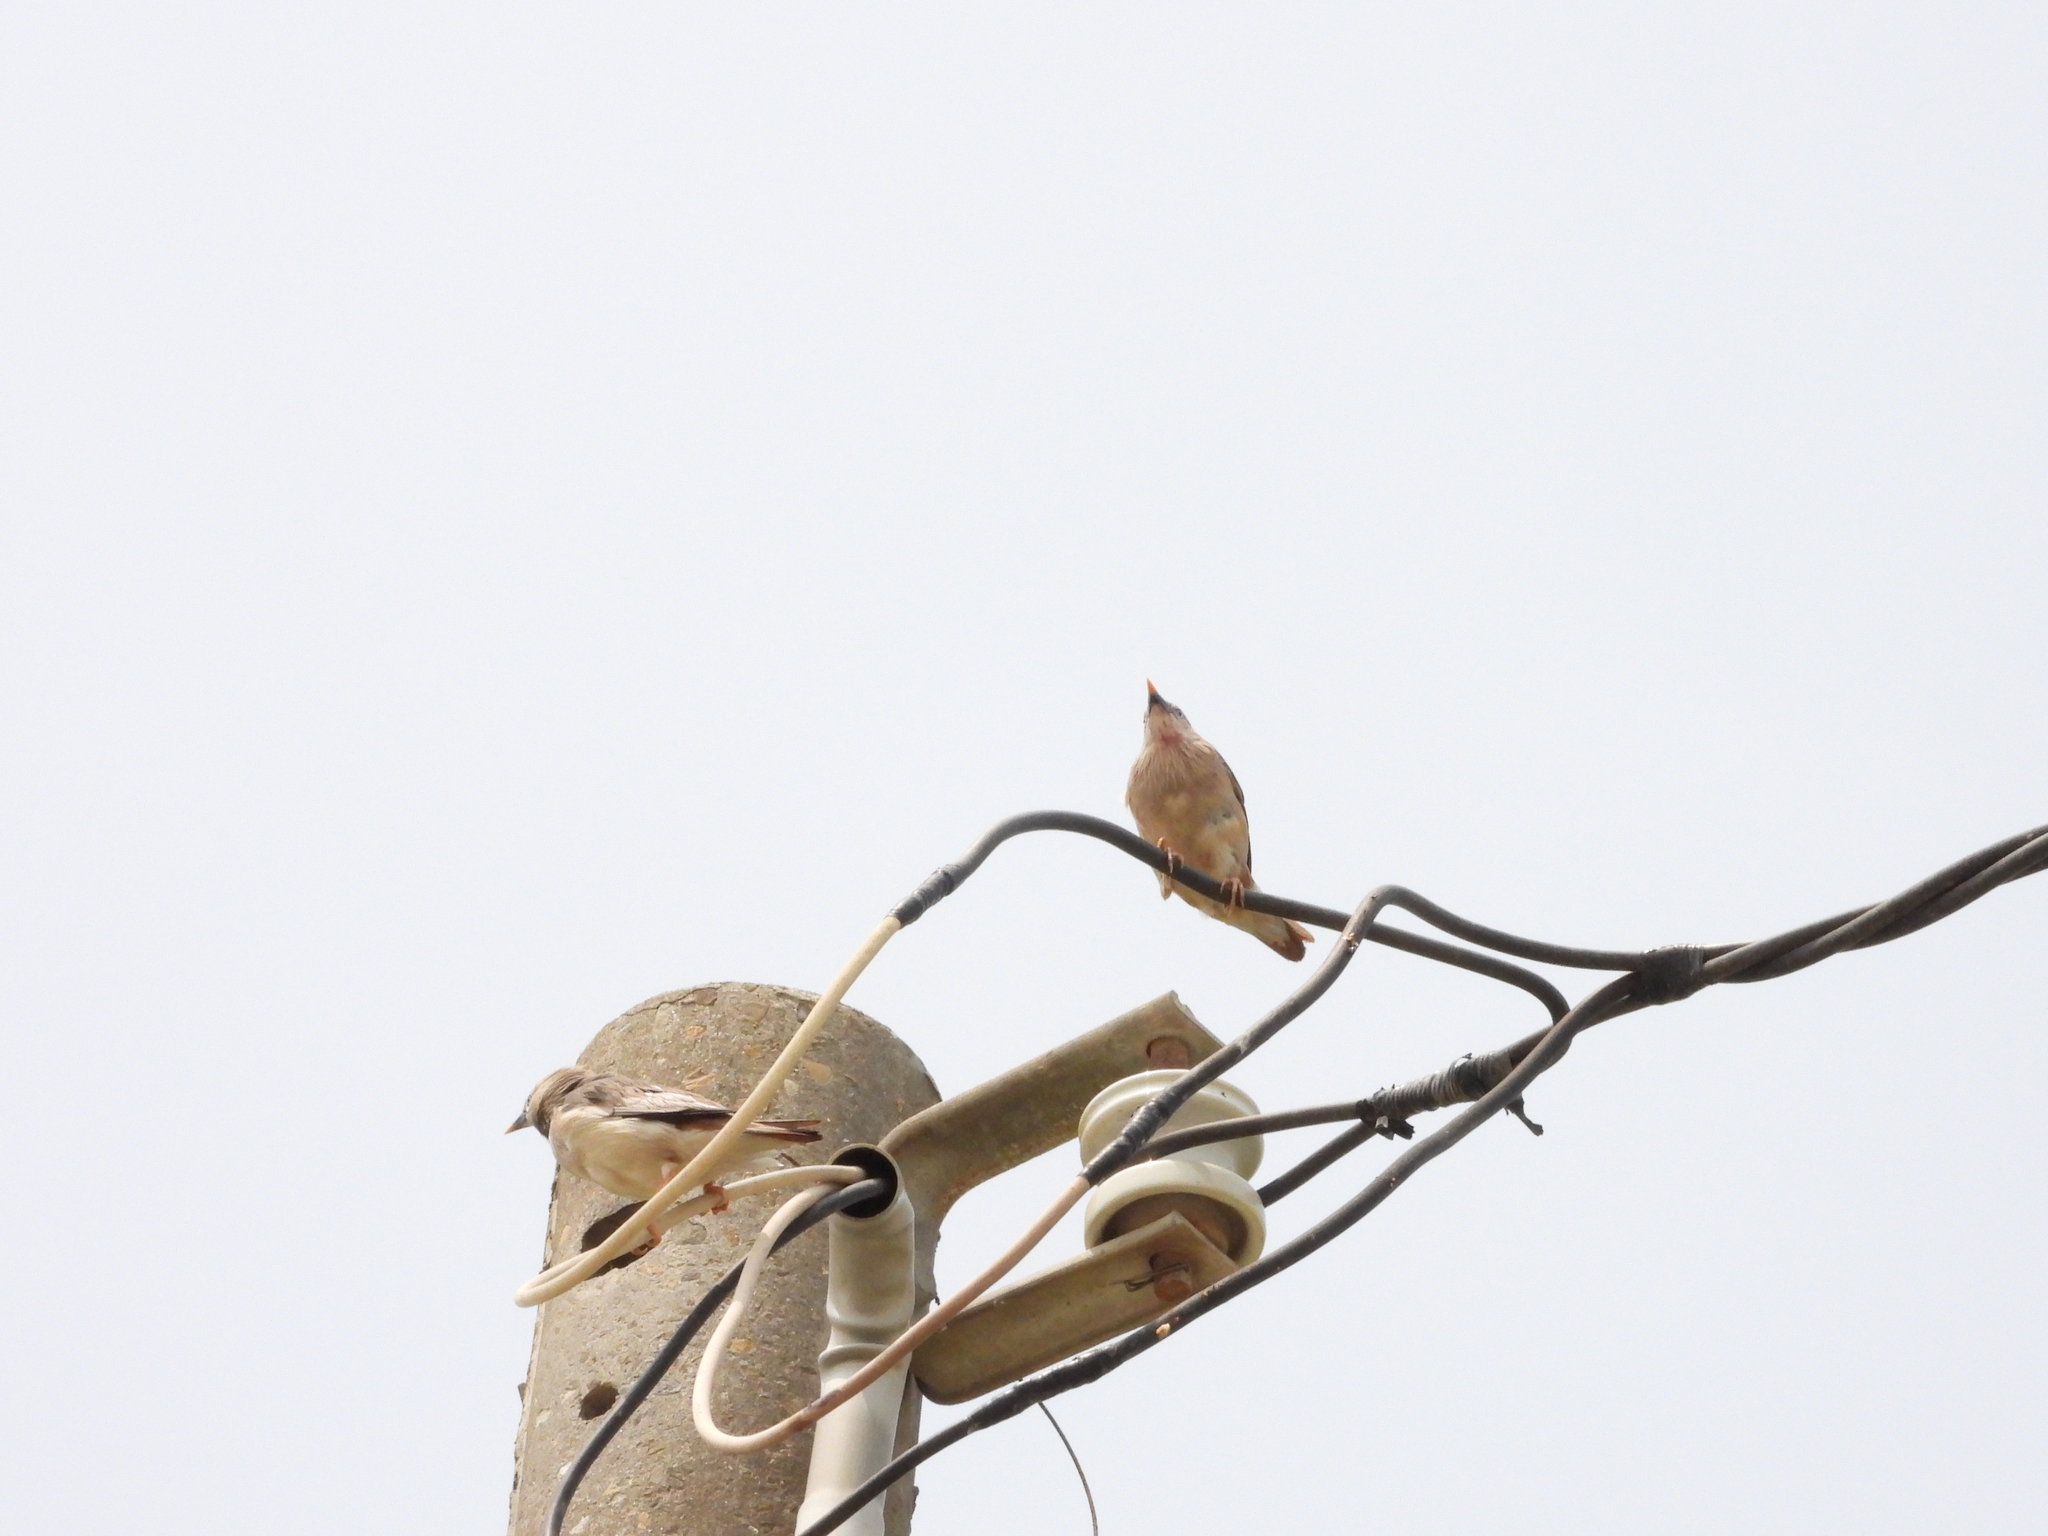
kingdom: Animalia
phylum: Chordata
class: Aves
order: Passeriformes
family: Sturnidae
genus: Sturnia
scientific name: Sturnia malabarica
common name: Chestnut-tailed starling
